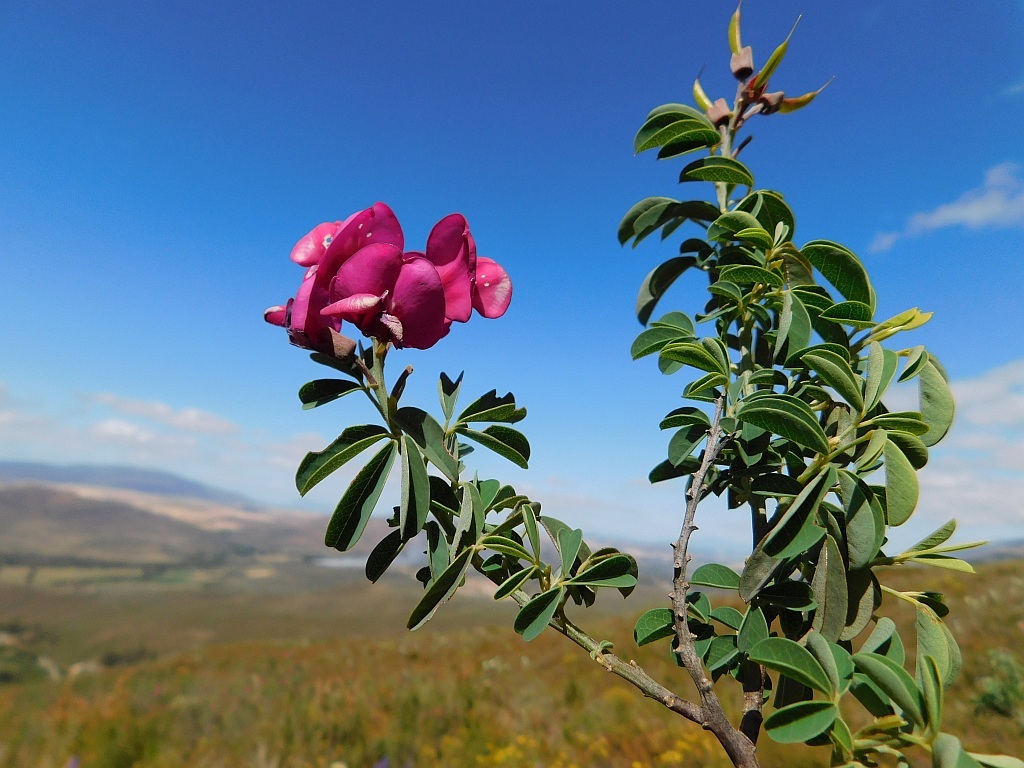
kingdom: Plantae
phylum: Tracheophyta
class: Magnoliopsida
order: Fabales
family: Fabaceae
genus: Hypocalyptus
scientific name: Hypocalyptus coluteoides
